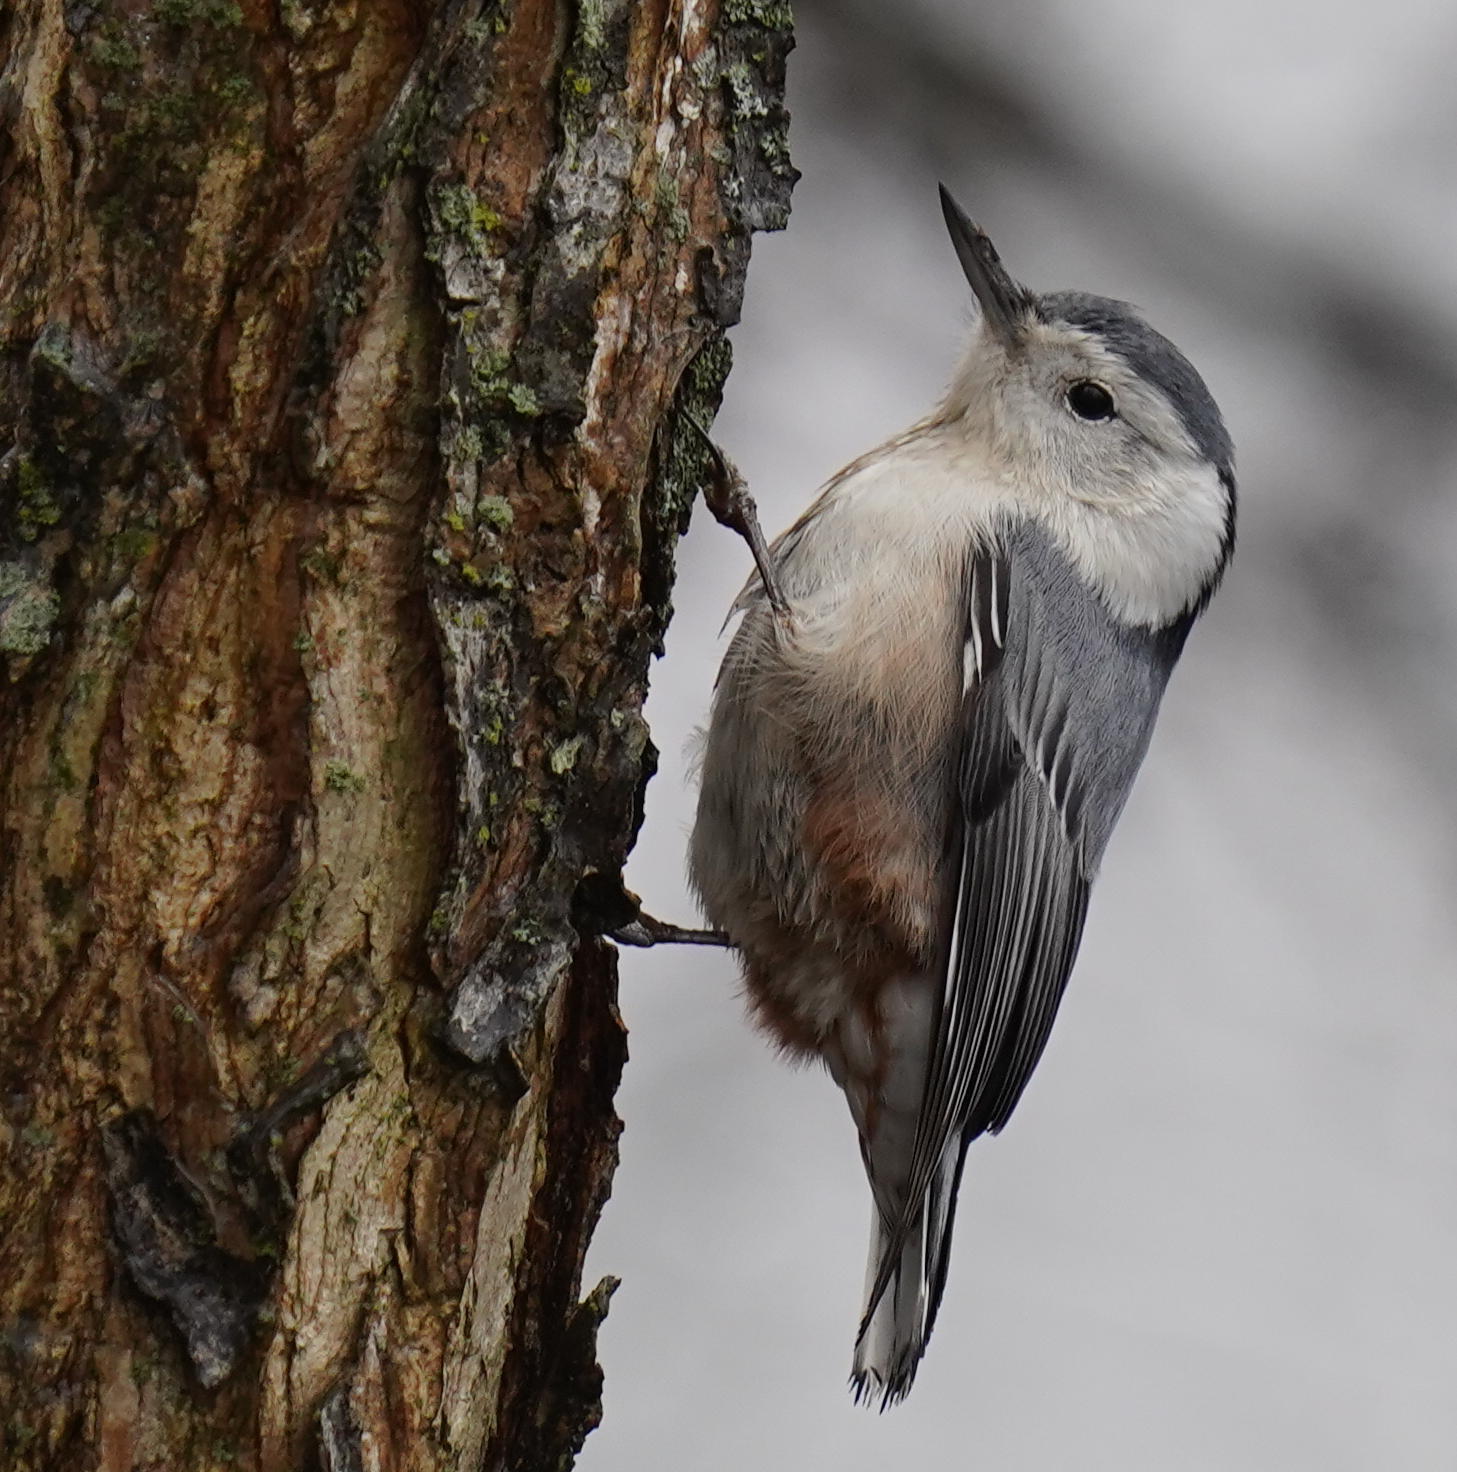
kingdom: Animalia
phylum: Chordata
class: Aves
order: Passeriformes
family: Sittidae
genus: Sitta
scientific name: Sitta carolinensis
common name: White-breasted nuthatch
